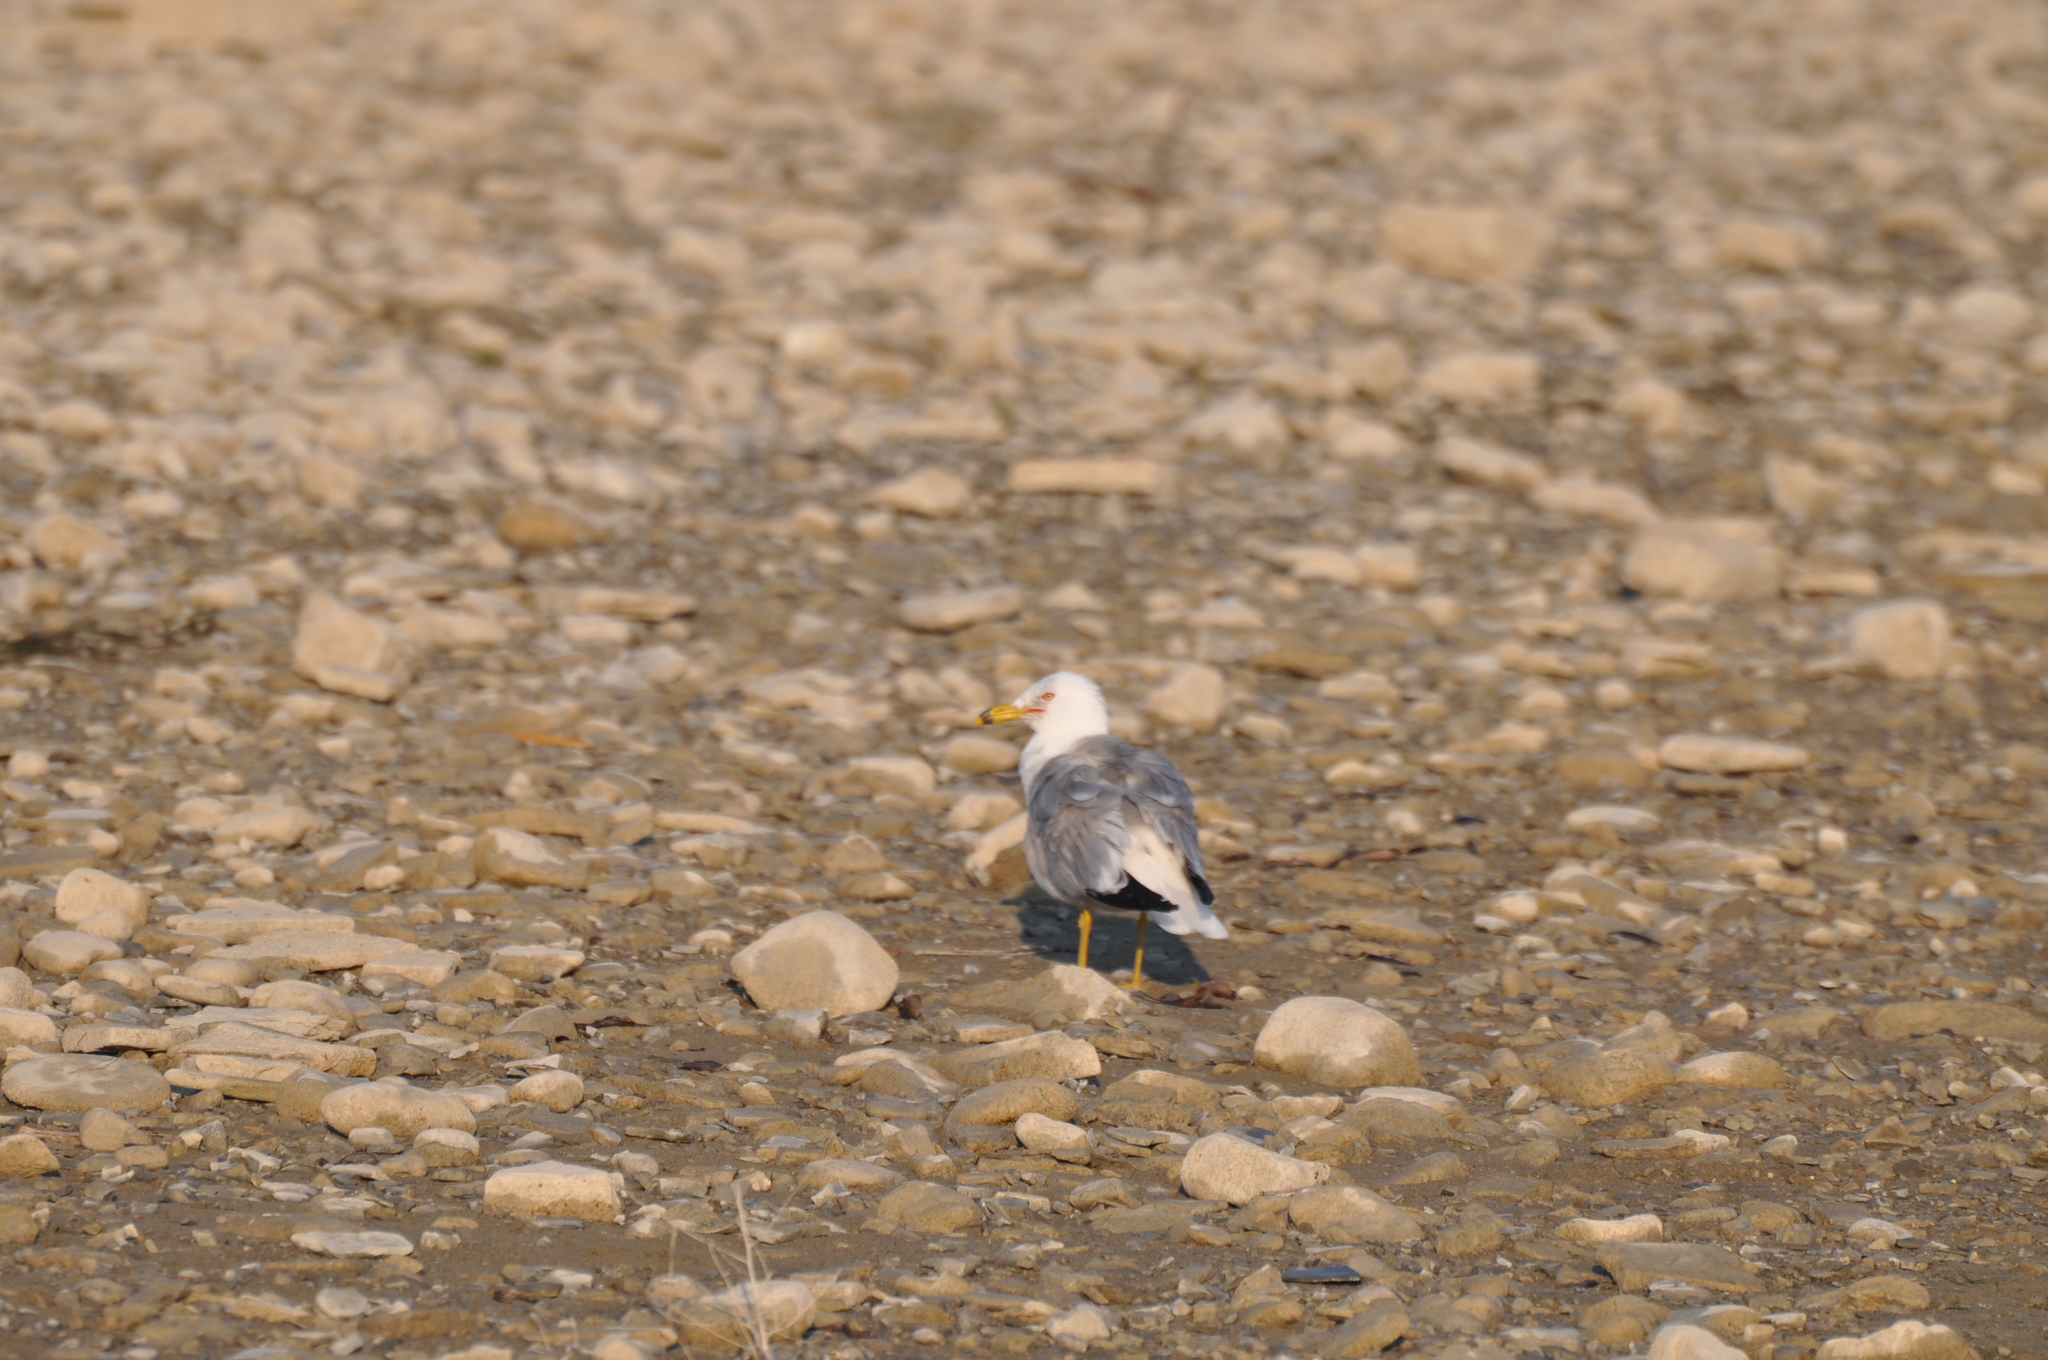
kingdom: Animalia
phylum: Chordata
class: Aves
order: Charadriiformes
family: Laridae
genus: Larus
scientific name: Larus delawarensis
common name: Ring-billed gull
